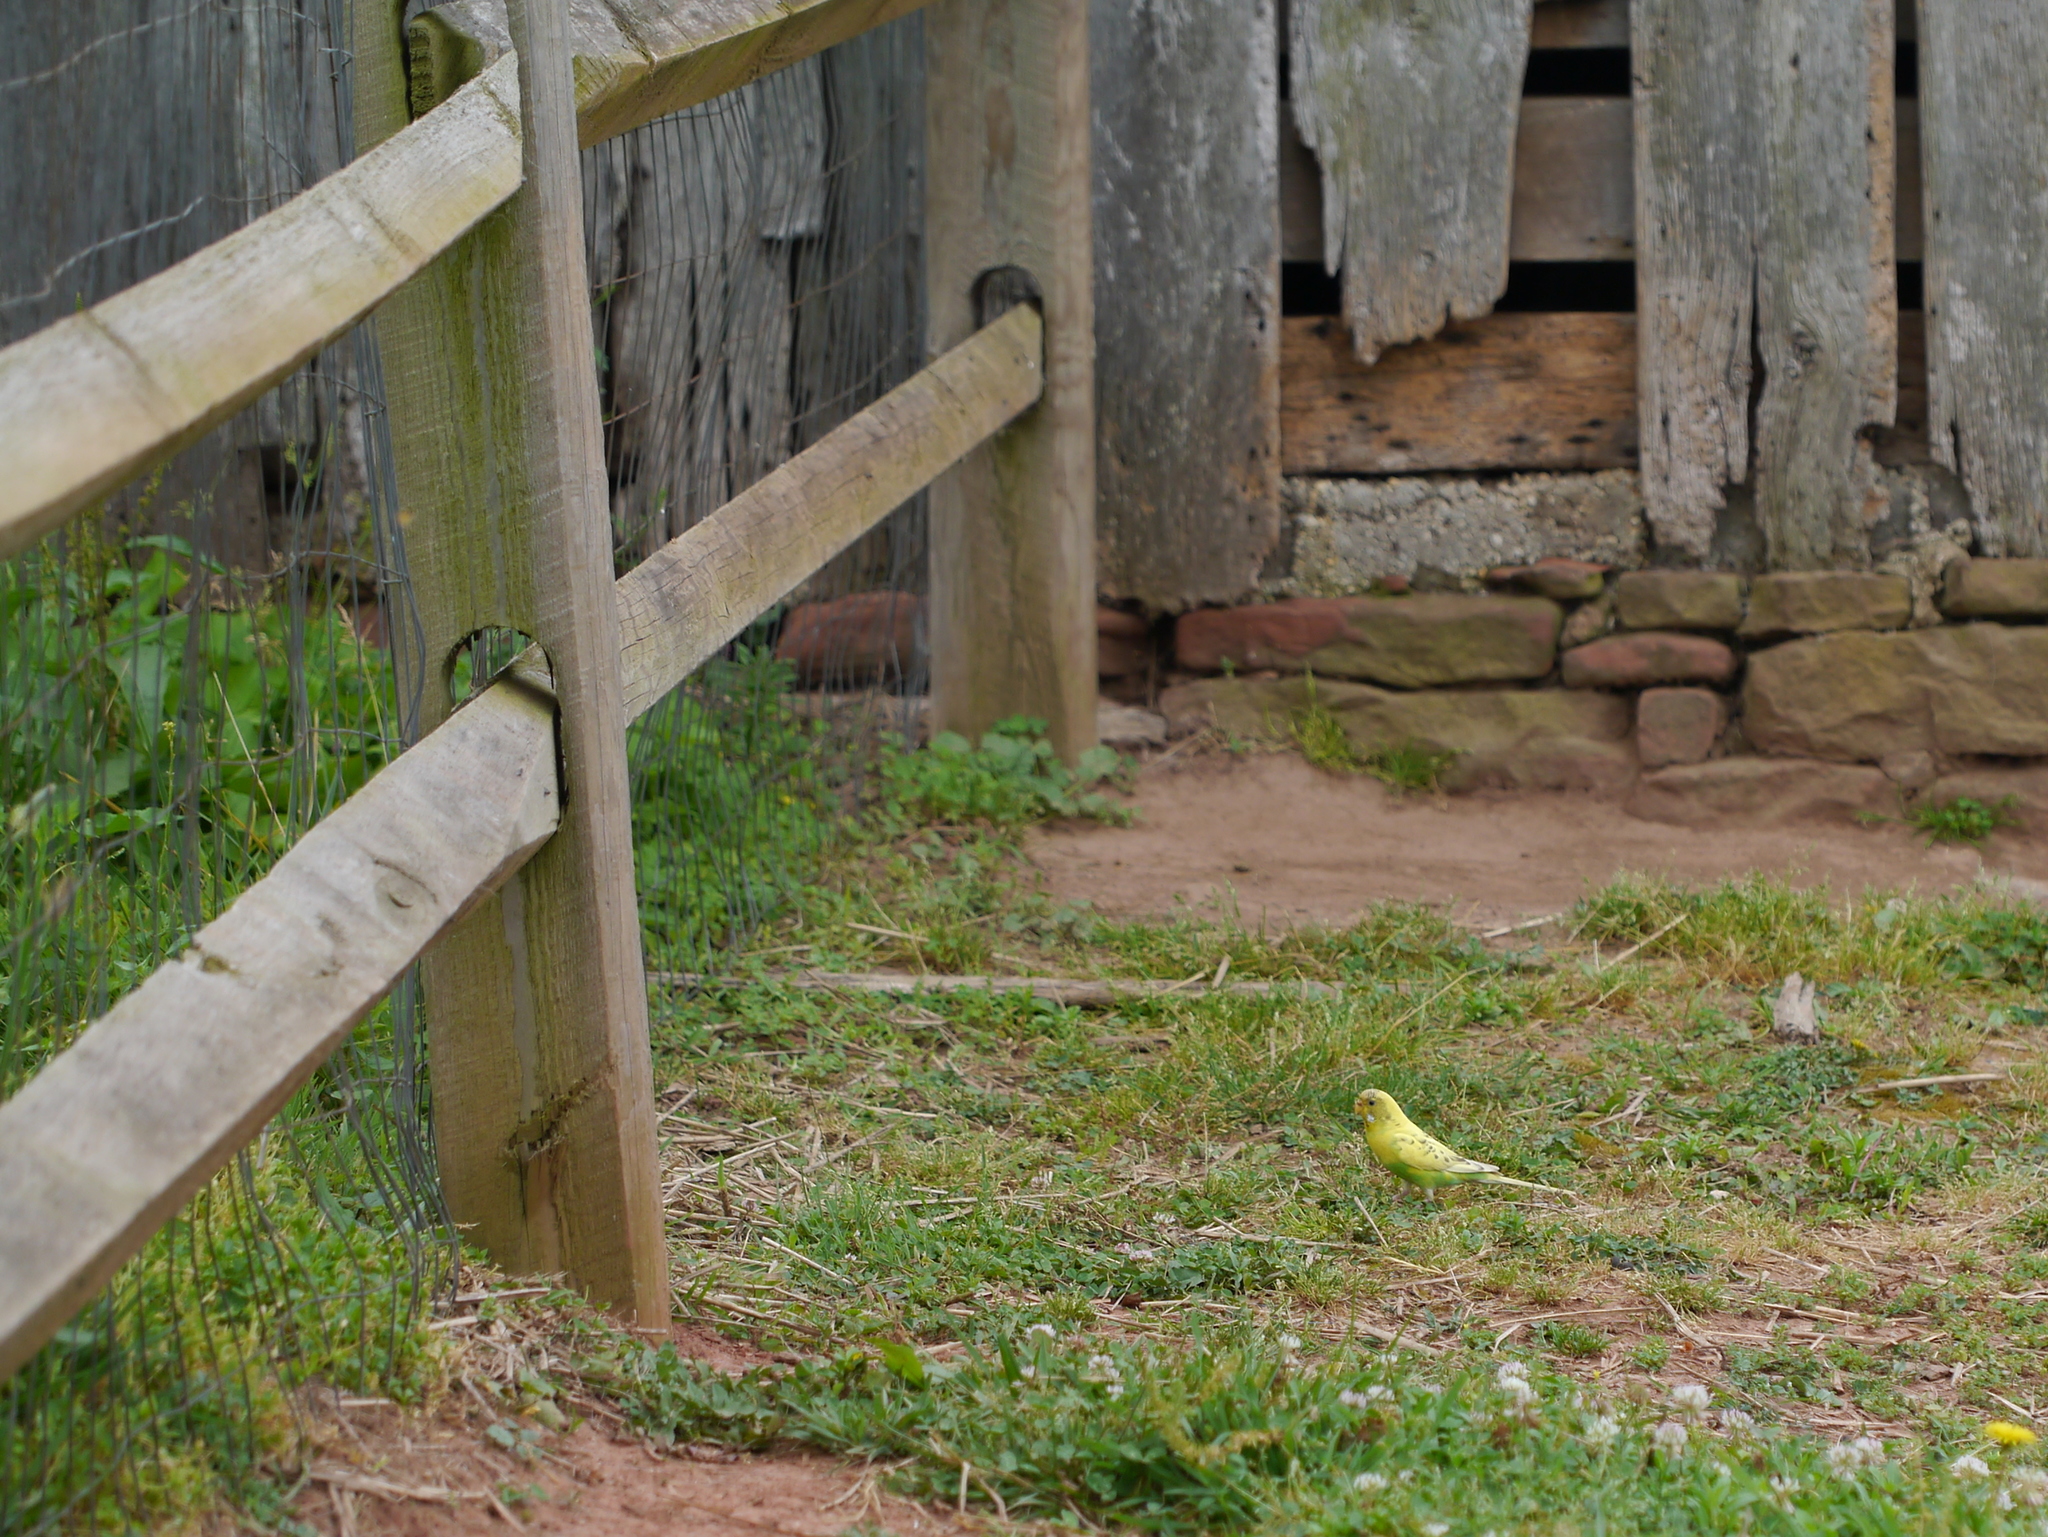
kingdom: Animalia
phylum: Chordata
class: Aves
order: Psittaciformes
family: Psittacidae
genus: Melopsittacus
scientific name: Melopsittacus undulatus
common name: Budgerigar
